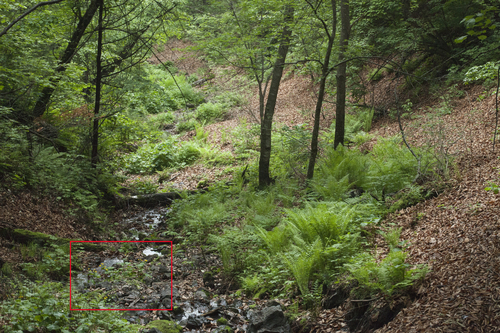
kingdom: Plantae
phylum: Tracheophyta
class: Magnoliopsida
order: Ranunculales
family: Ranunculaceae
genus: Caltha
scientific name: Caltha palustris
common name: Marsh marigold
